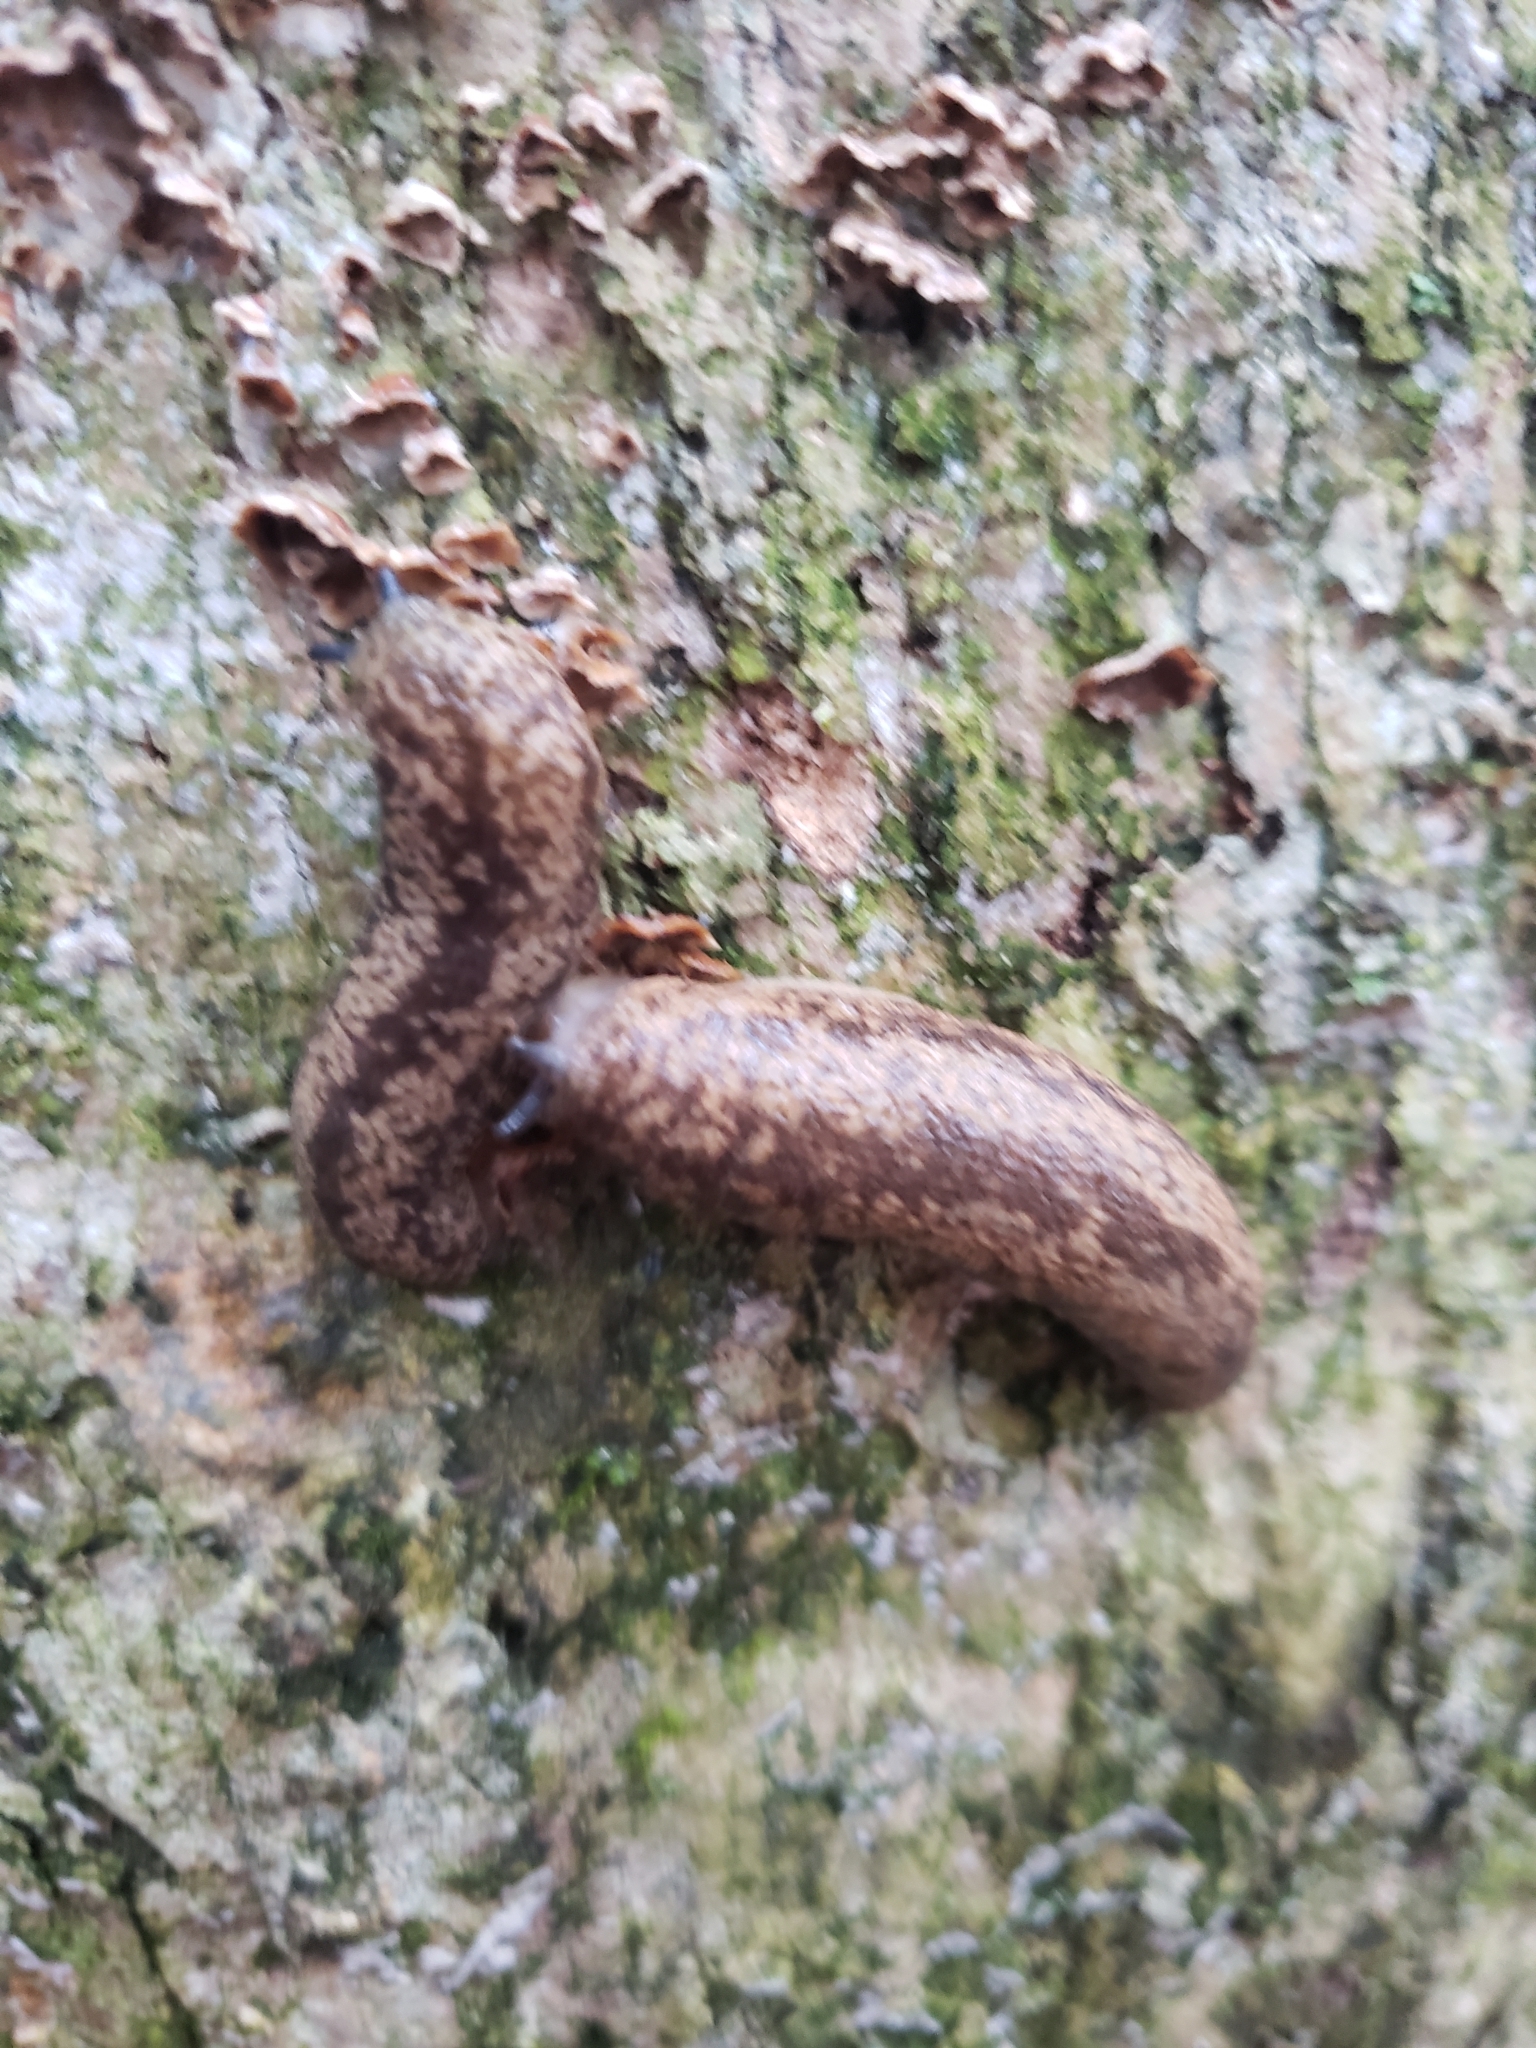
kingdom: Animalia
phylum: Mollusca
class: Gastropoda
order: Stylommatophora
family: Philomycidae
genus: Philomycus
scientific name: Philomycus flexuolaris
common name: Winding mantleslug
